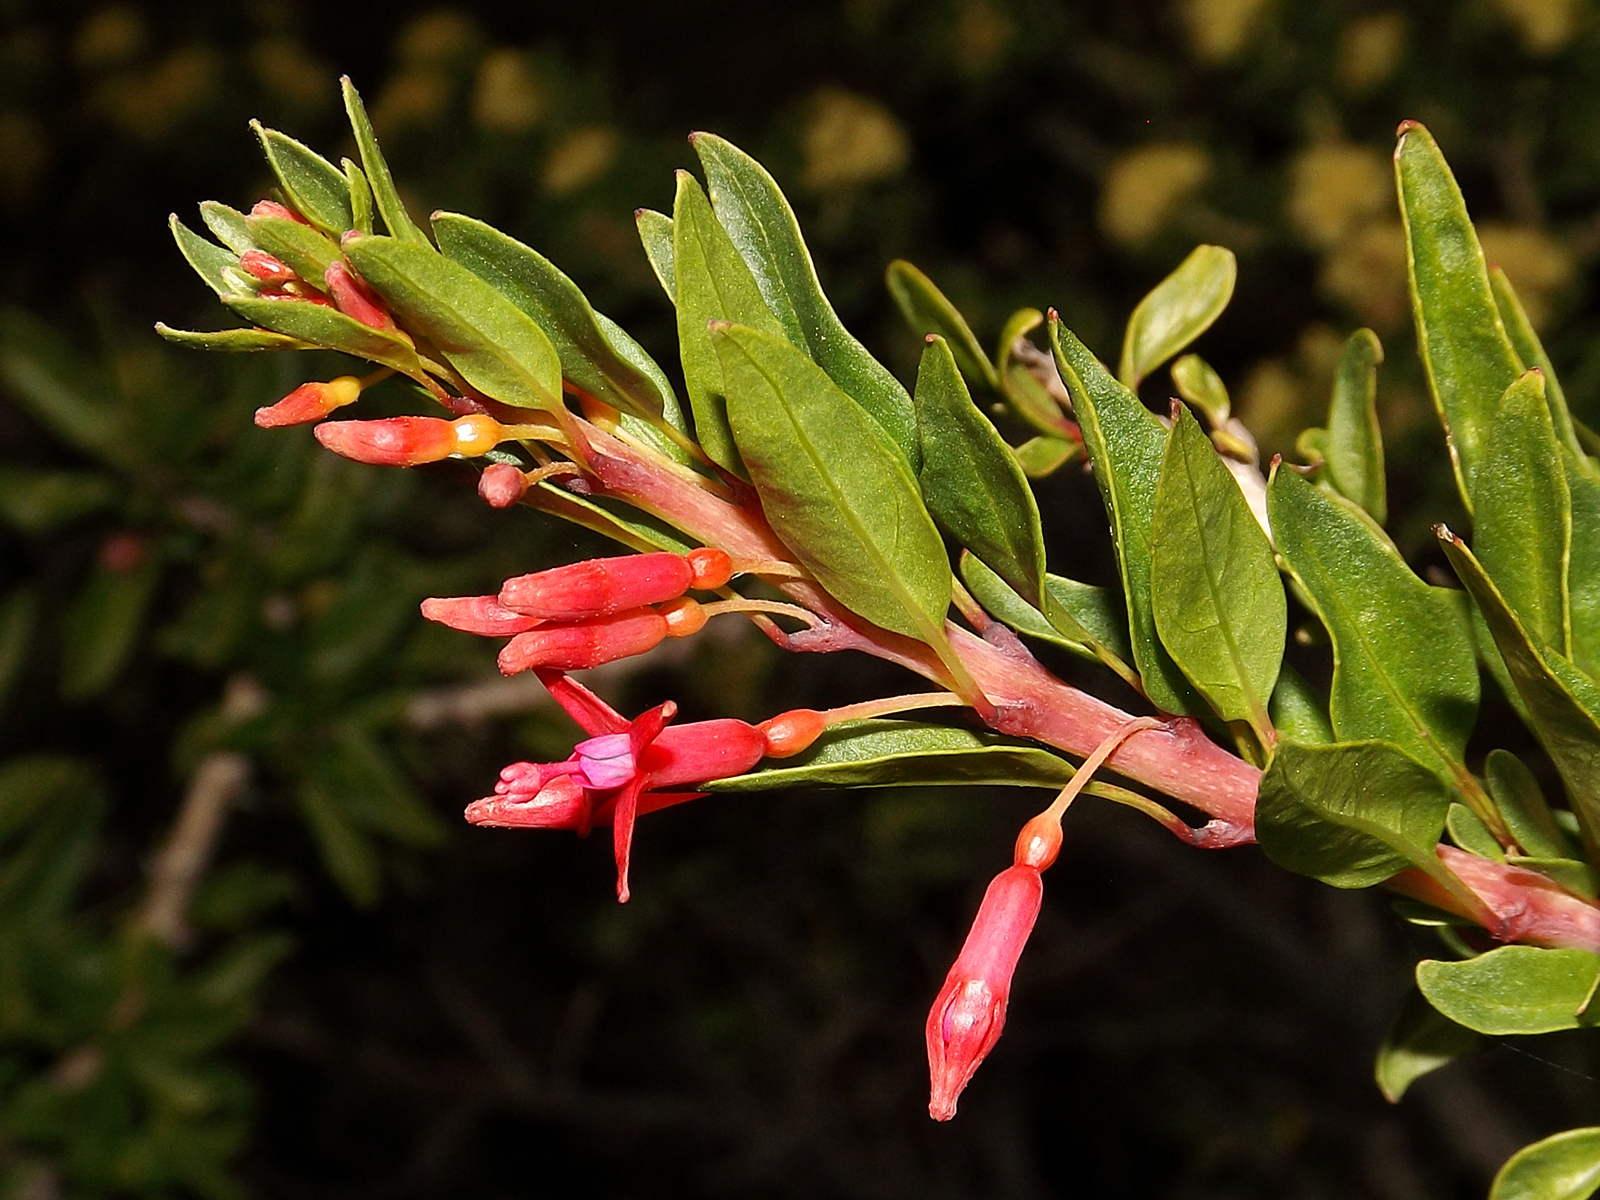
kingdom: Plantae
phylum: Tracheophyta
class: Magnoliopsida
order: Myrtales
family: Onagraceae
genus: Fuchsia
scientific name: Fuchsia lycioides
